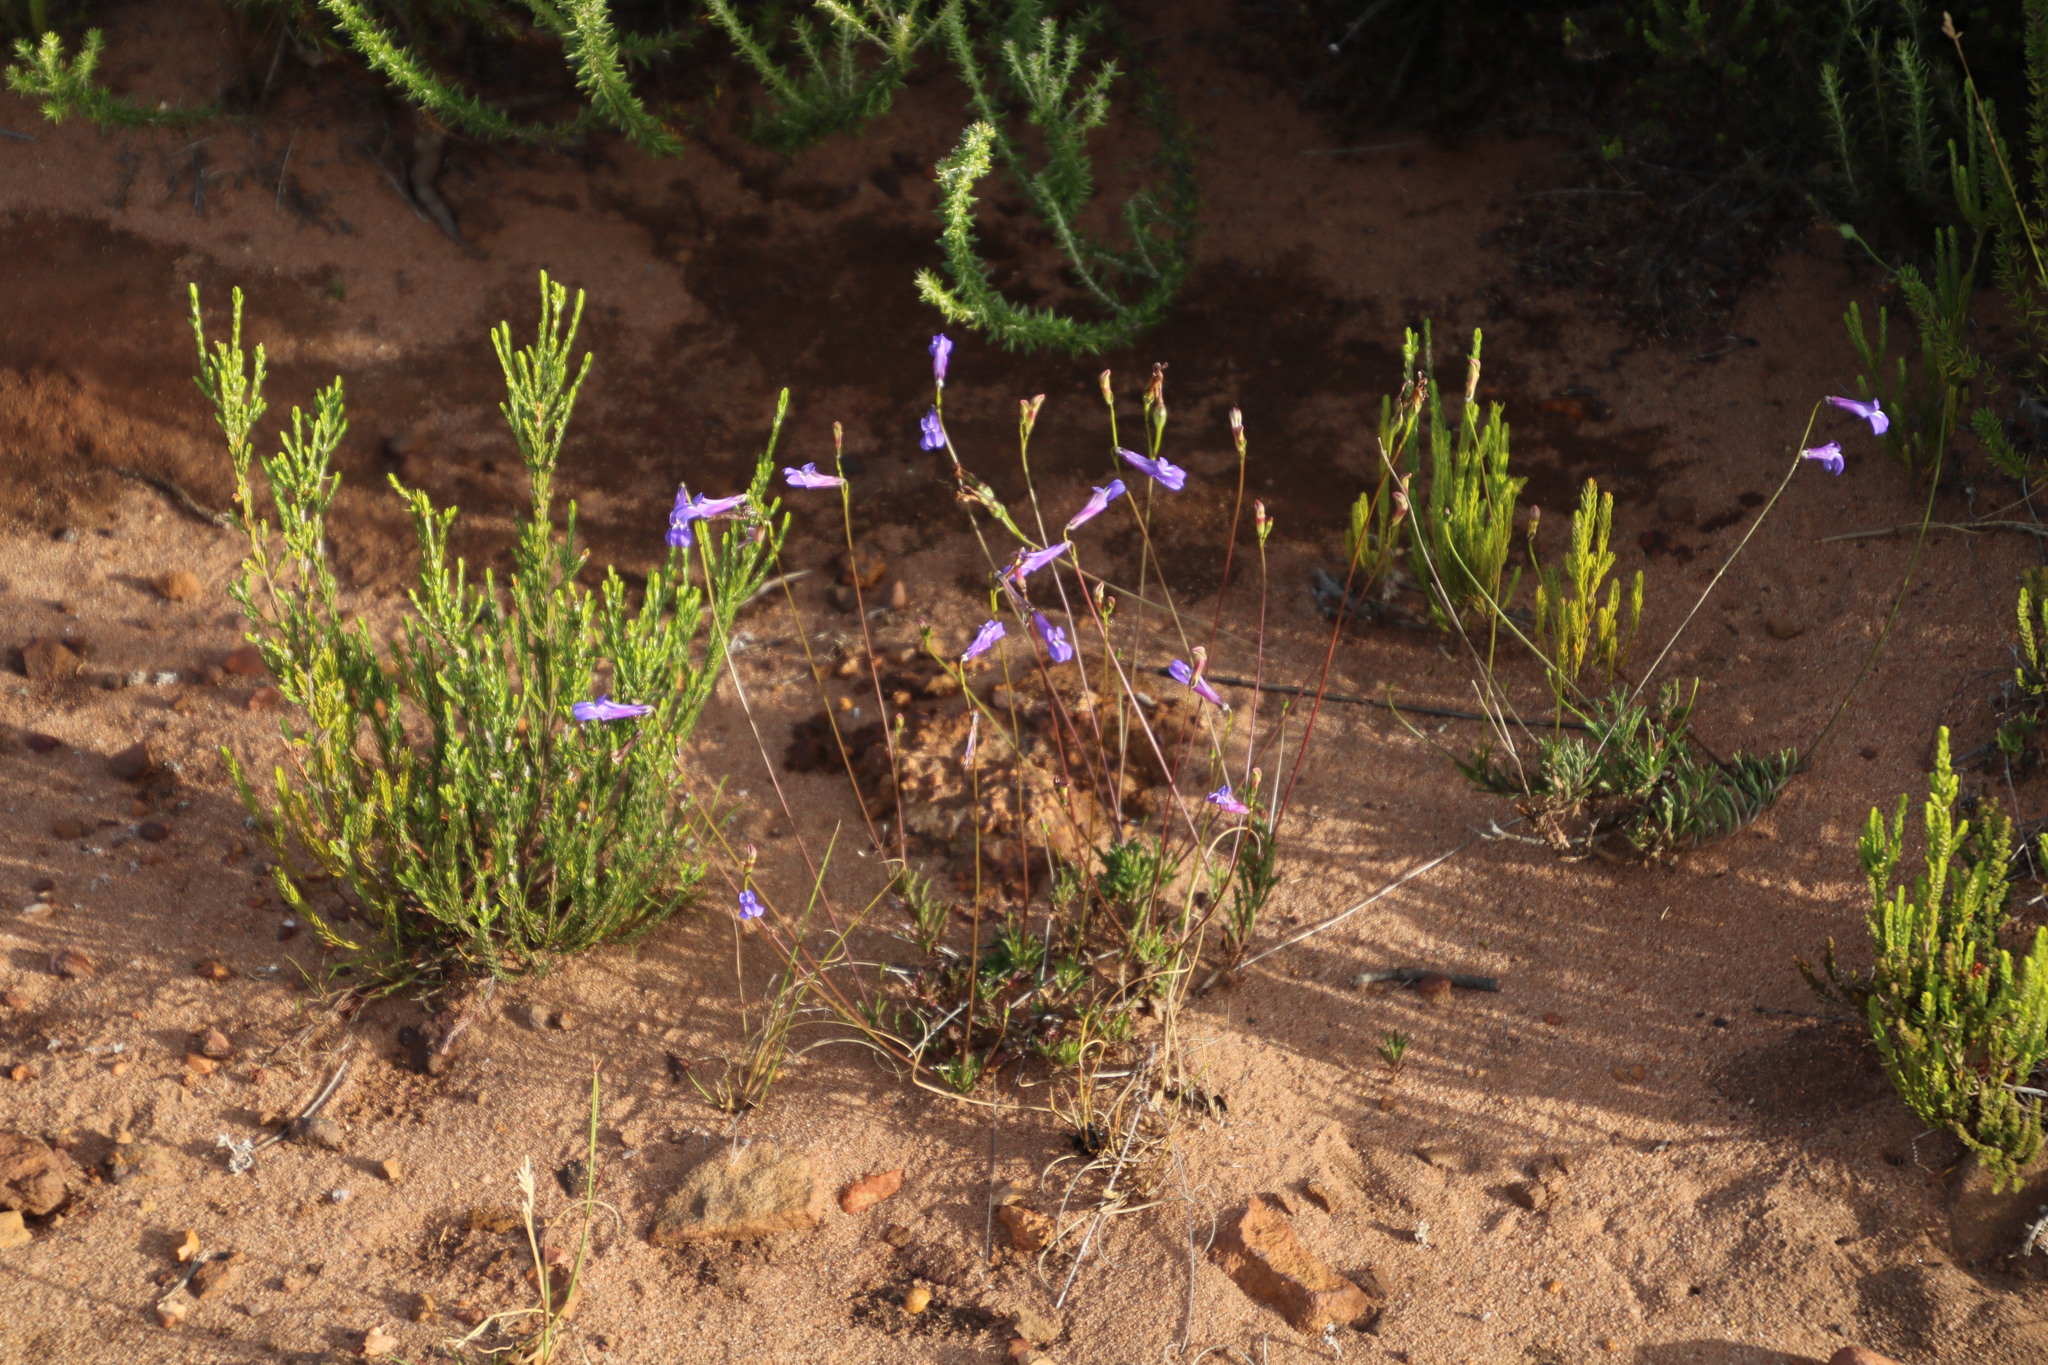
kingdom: Plantae
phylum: Tracheophyta
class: Magnoliopsida
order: Asterales
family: Campanulaceae
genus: Lobelia
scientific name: Lobelia coronopifolia
